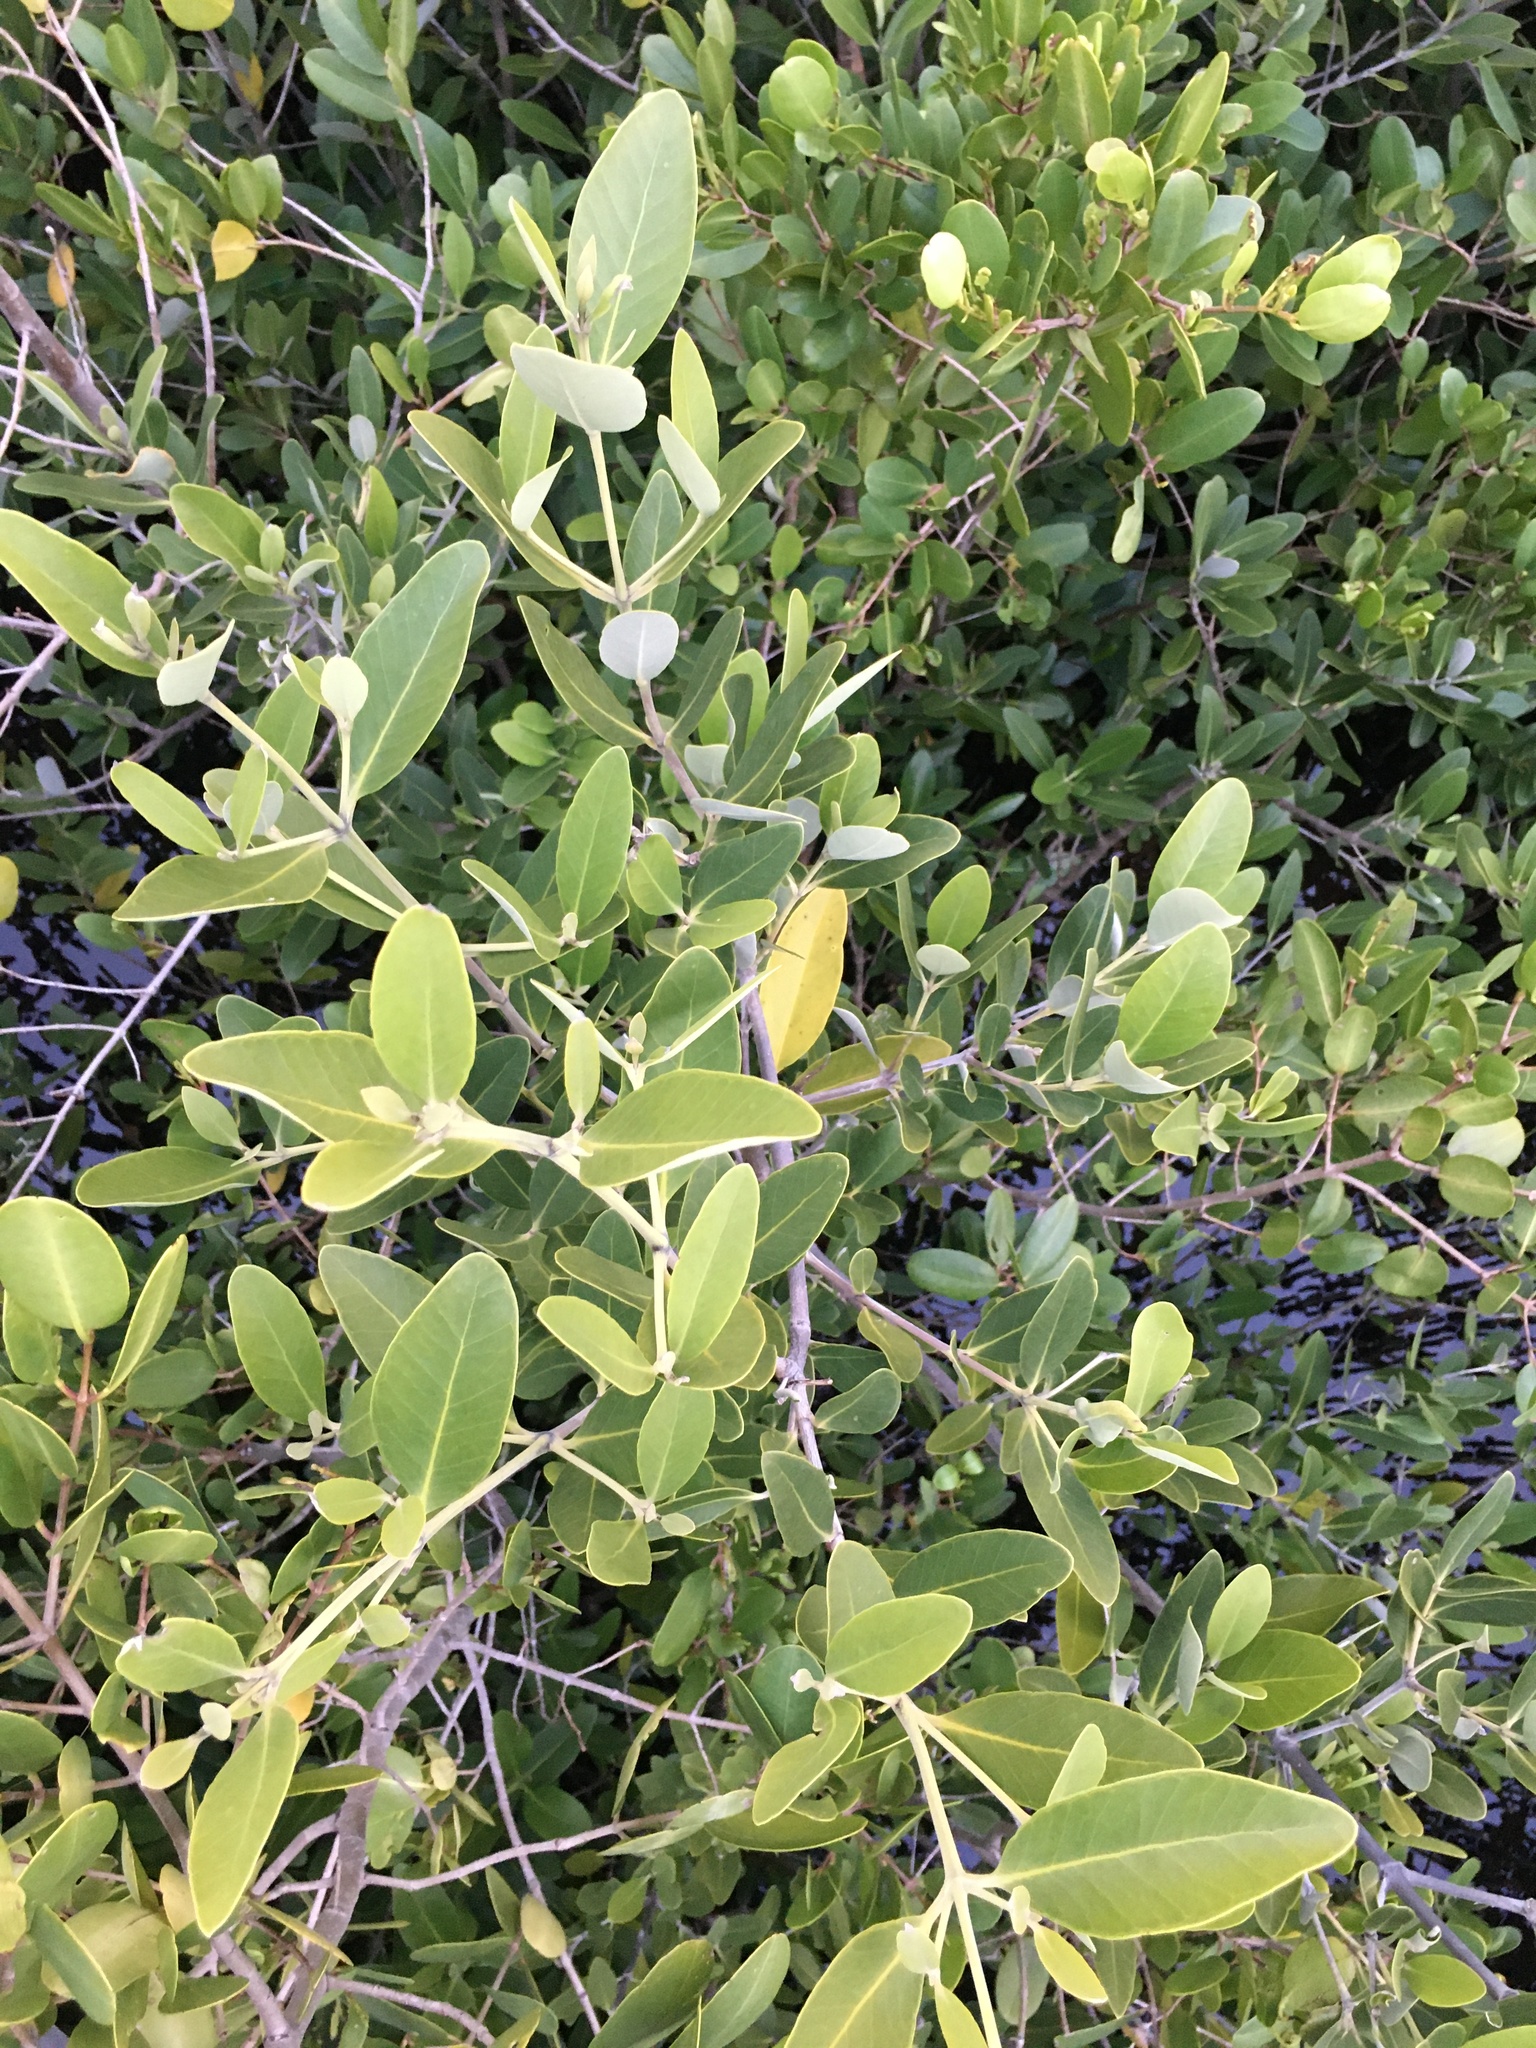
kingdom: Plantae
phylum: Tracheophyta
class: Magnoliopsida
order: Lamiales
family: Acanthaceae
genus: Avicennia
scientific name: Avicennia germinans
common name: Black mangrove
